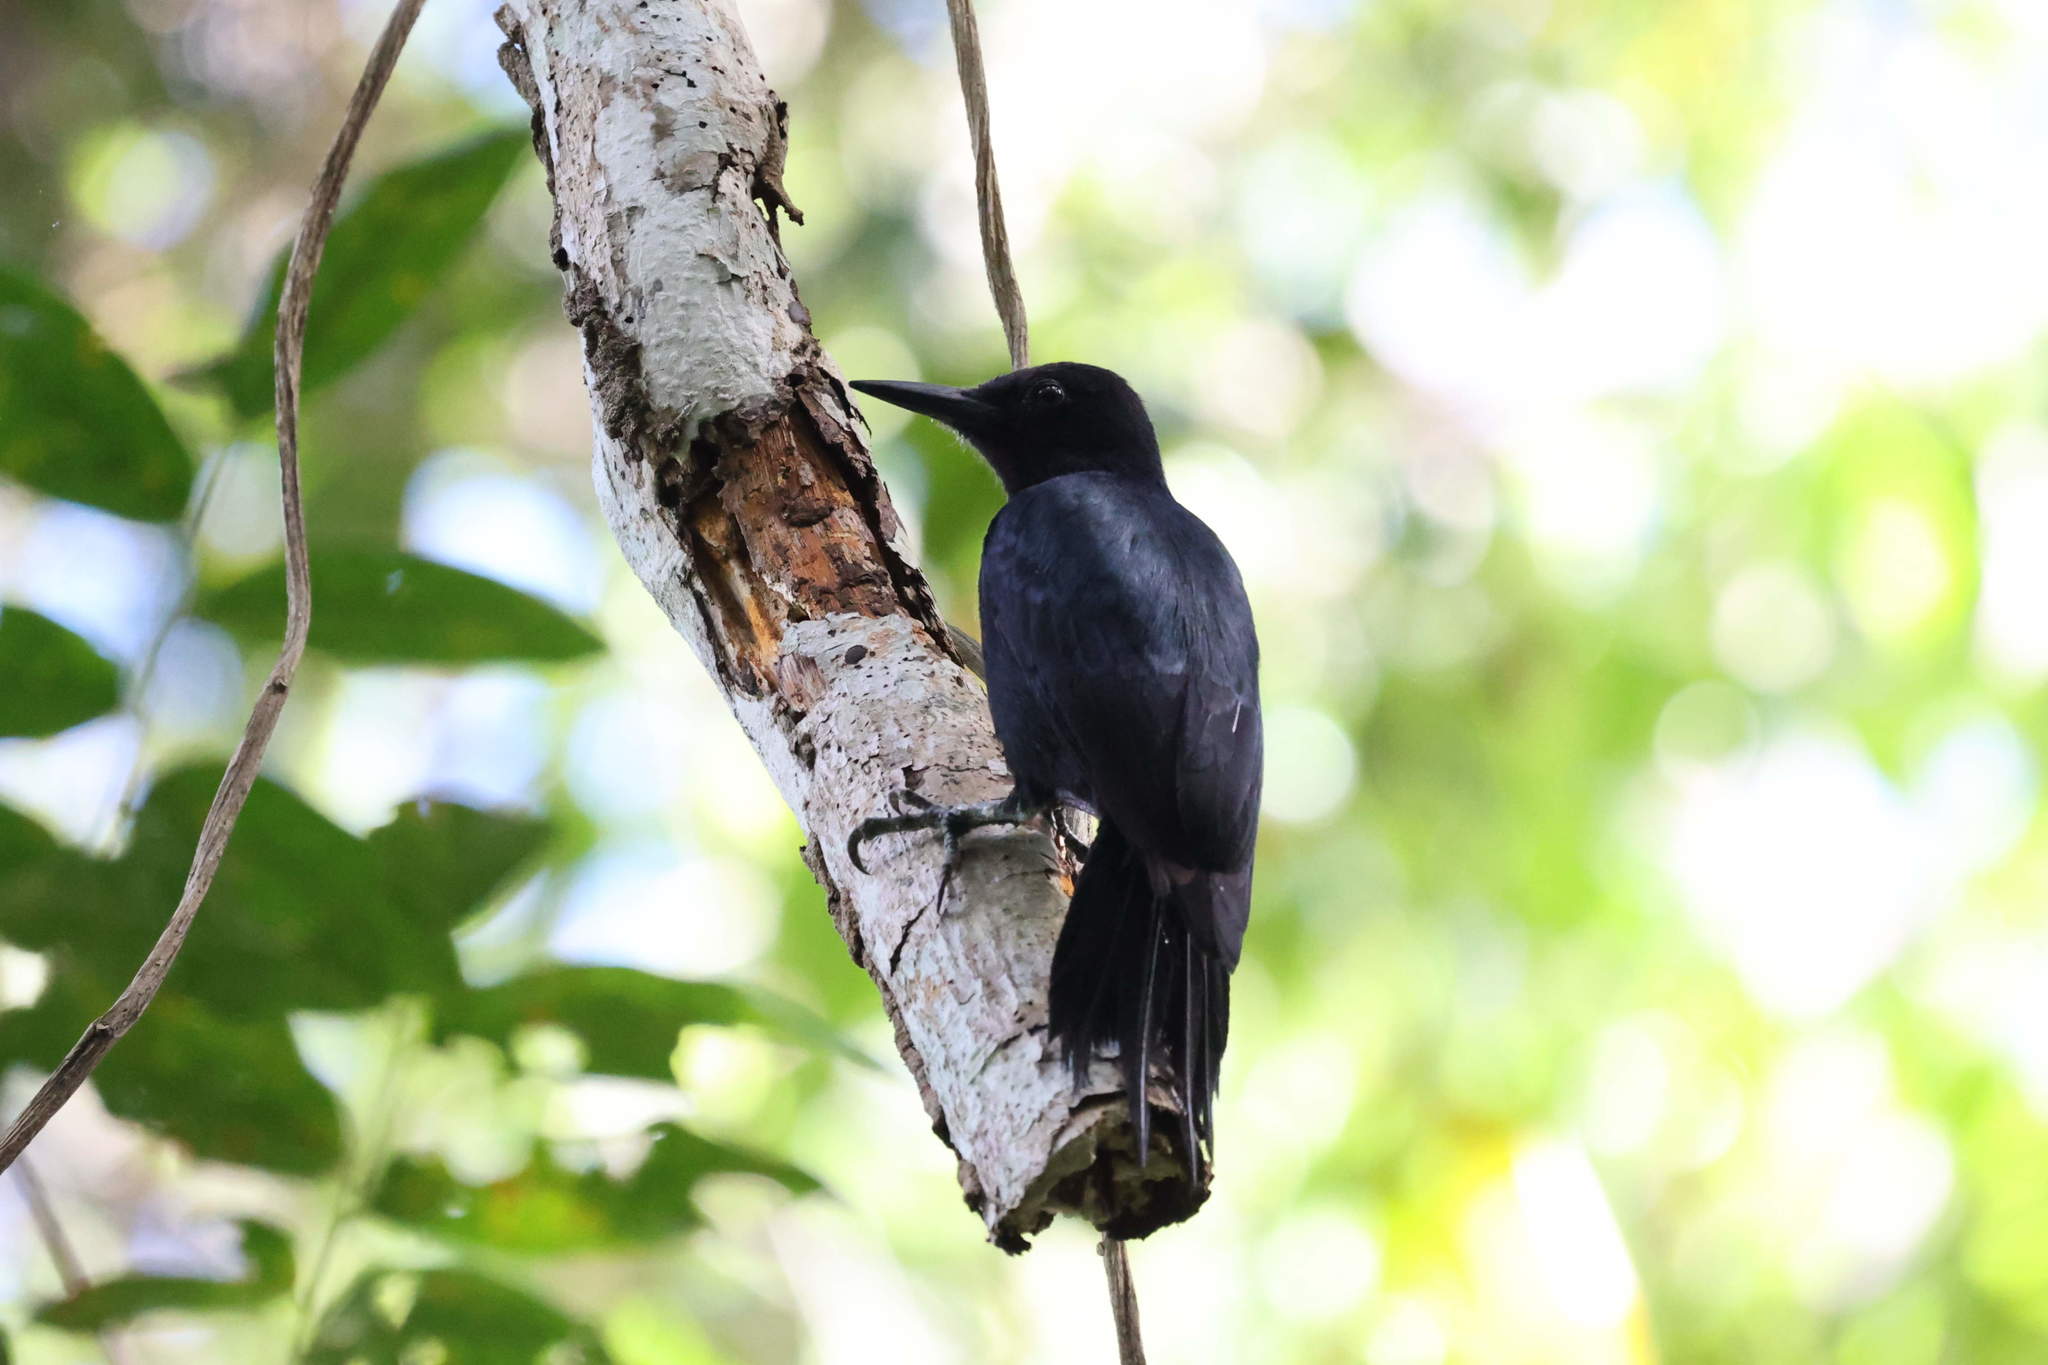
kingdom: Animalia
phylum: Chordata
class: Aves
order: Piciformes
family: Picidae
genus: Melanerpes
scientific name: Melanerpes herminieri
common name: Guadeloupe woodpecker
